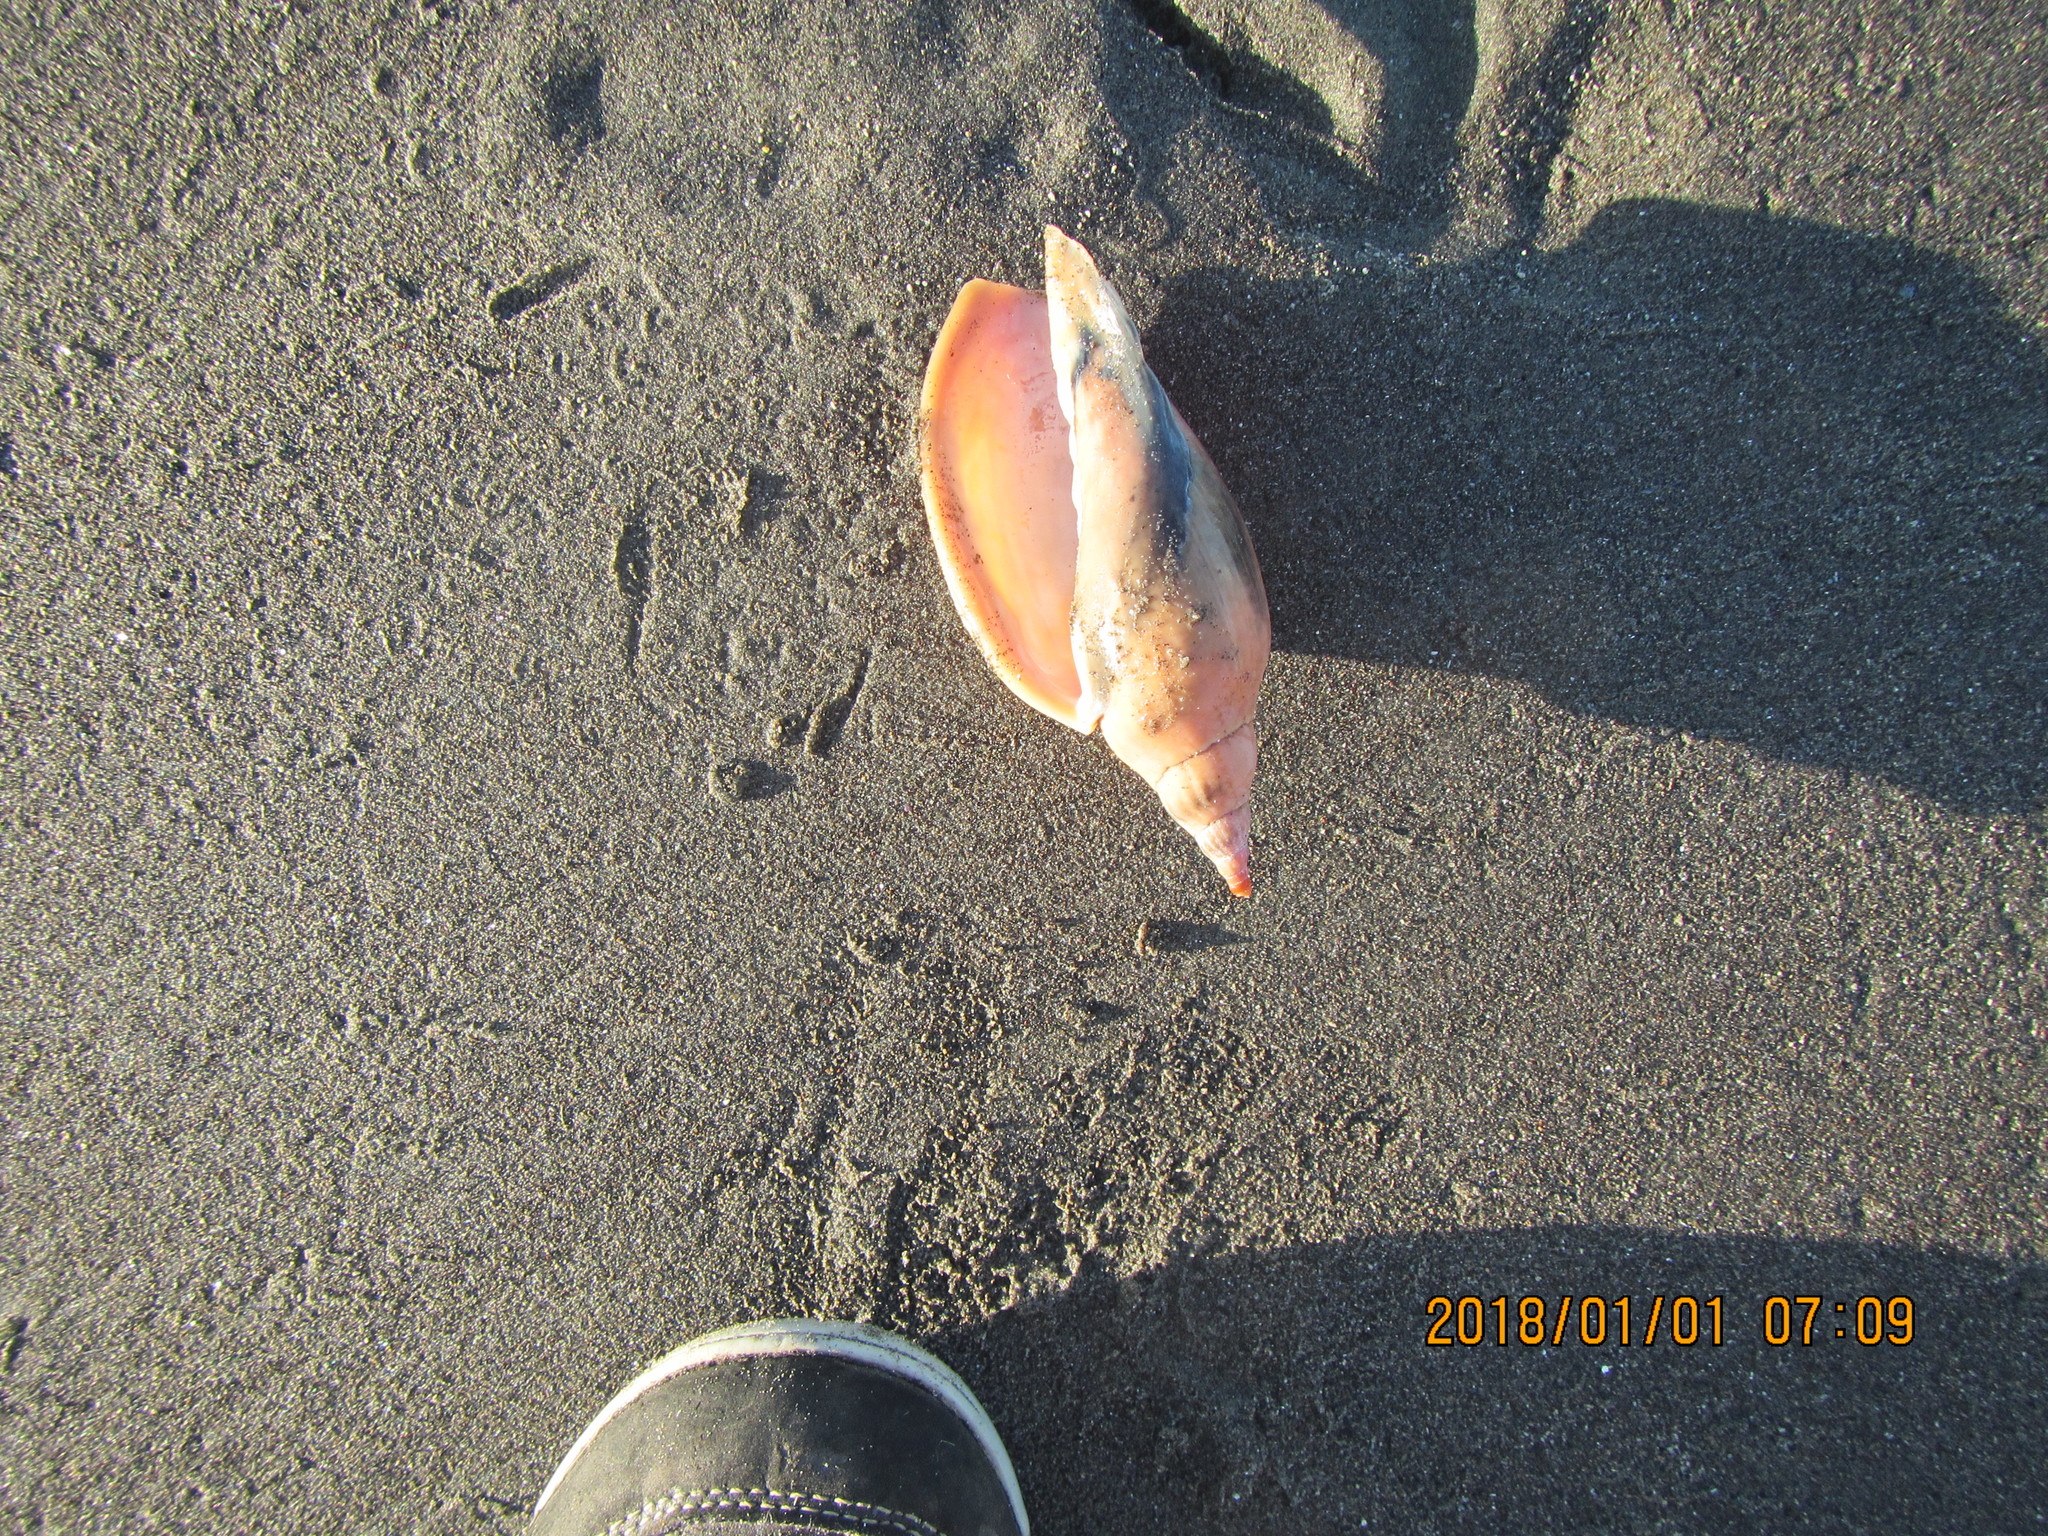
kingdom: Animalia
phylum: Mollusca
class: Gastropoda
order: Neogastropoda
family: Volutidae
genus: Alcithoe
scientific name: Alcithoe arabica
